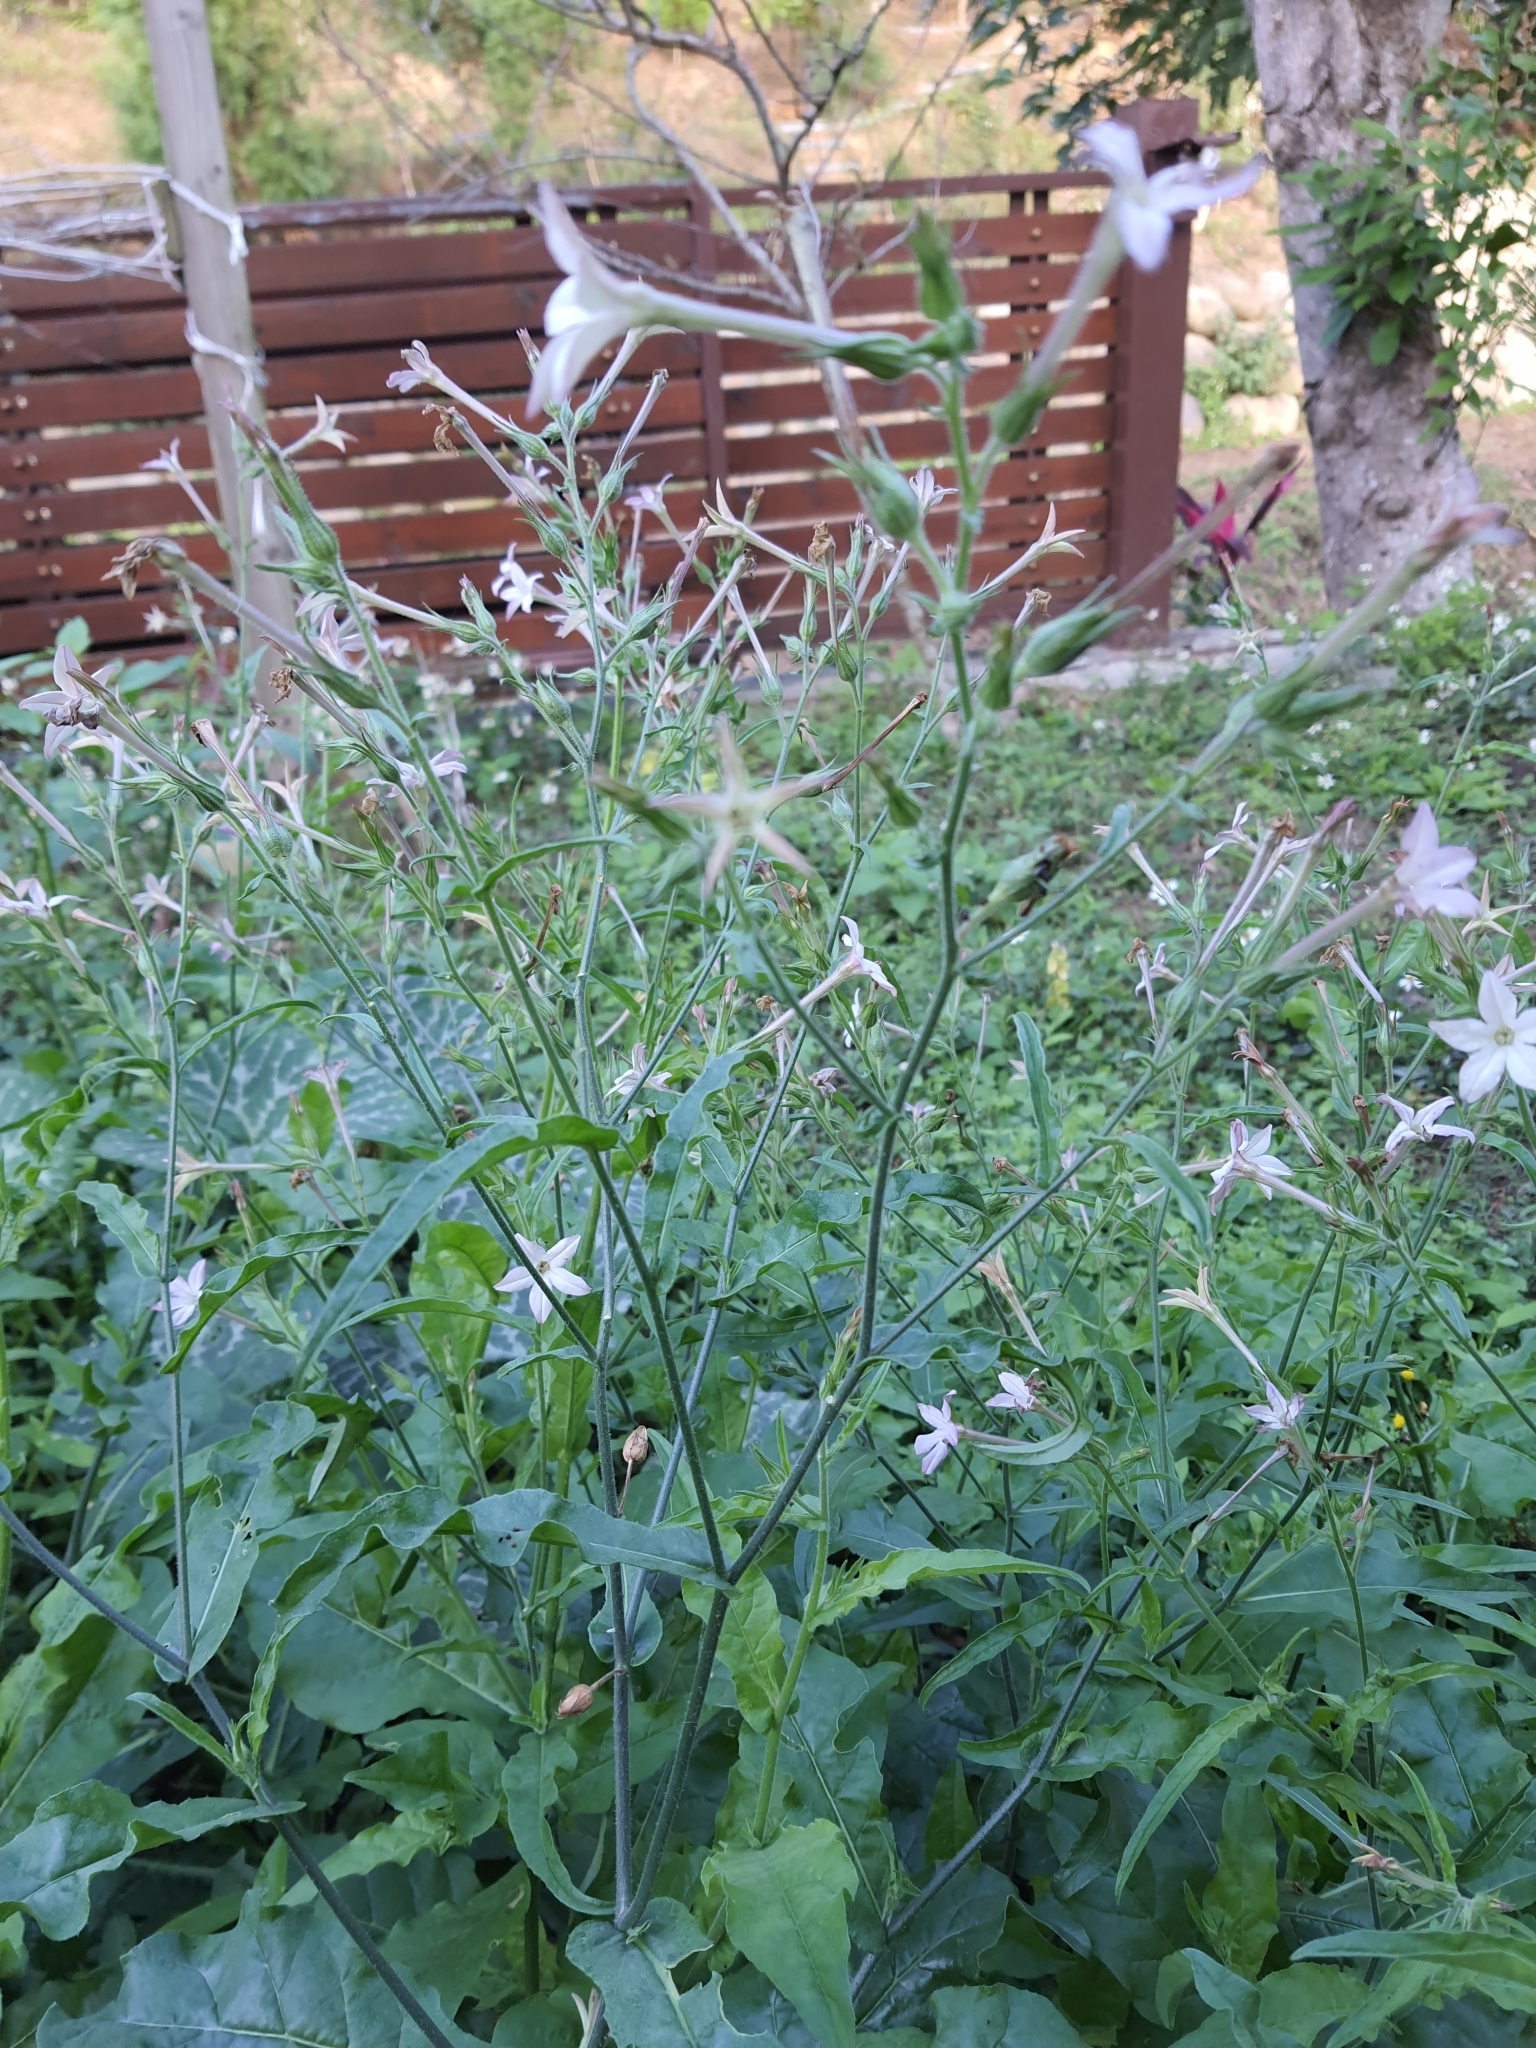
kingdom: Plantae
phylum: Tracheophyta
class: Magnoliopsida
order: Solanales
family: Solanaceae
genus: Nicotiana
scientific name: Nicotiana plumbaginifolia
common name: Tex-mex tobacco
